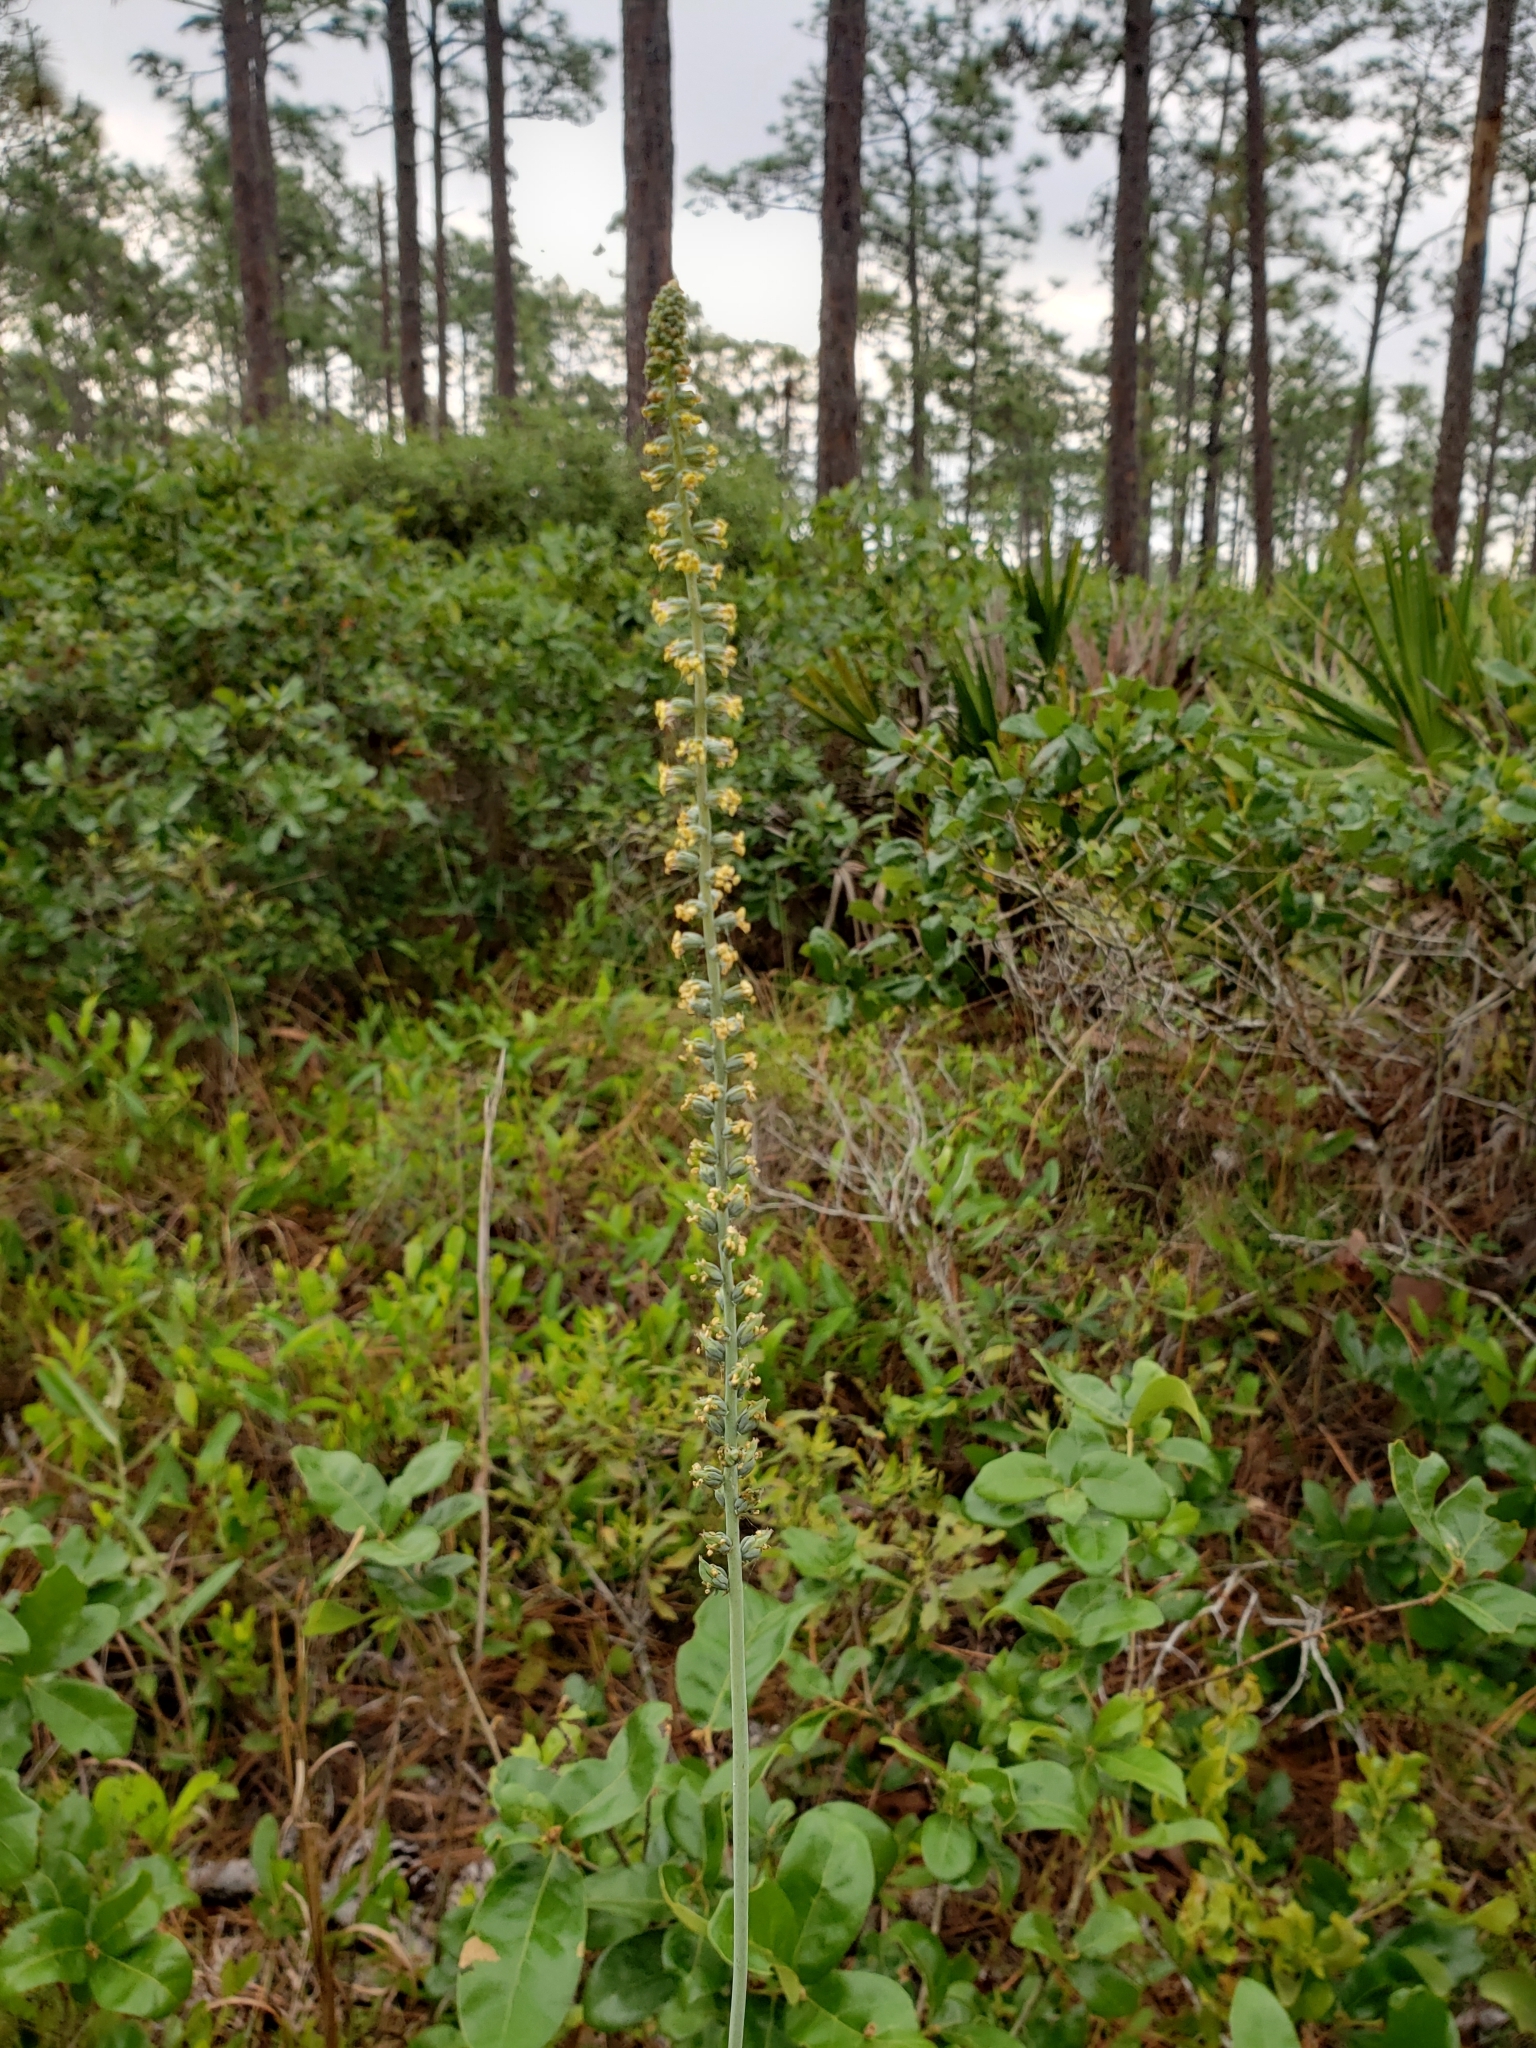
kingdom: Plantae
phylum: Tracheophyta
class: Liliopsida
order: Liliales
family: Melanthiaceae
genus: Schoenocaulon
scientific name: Schoenocaulon dubium
